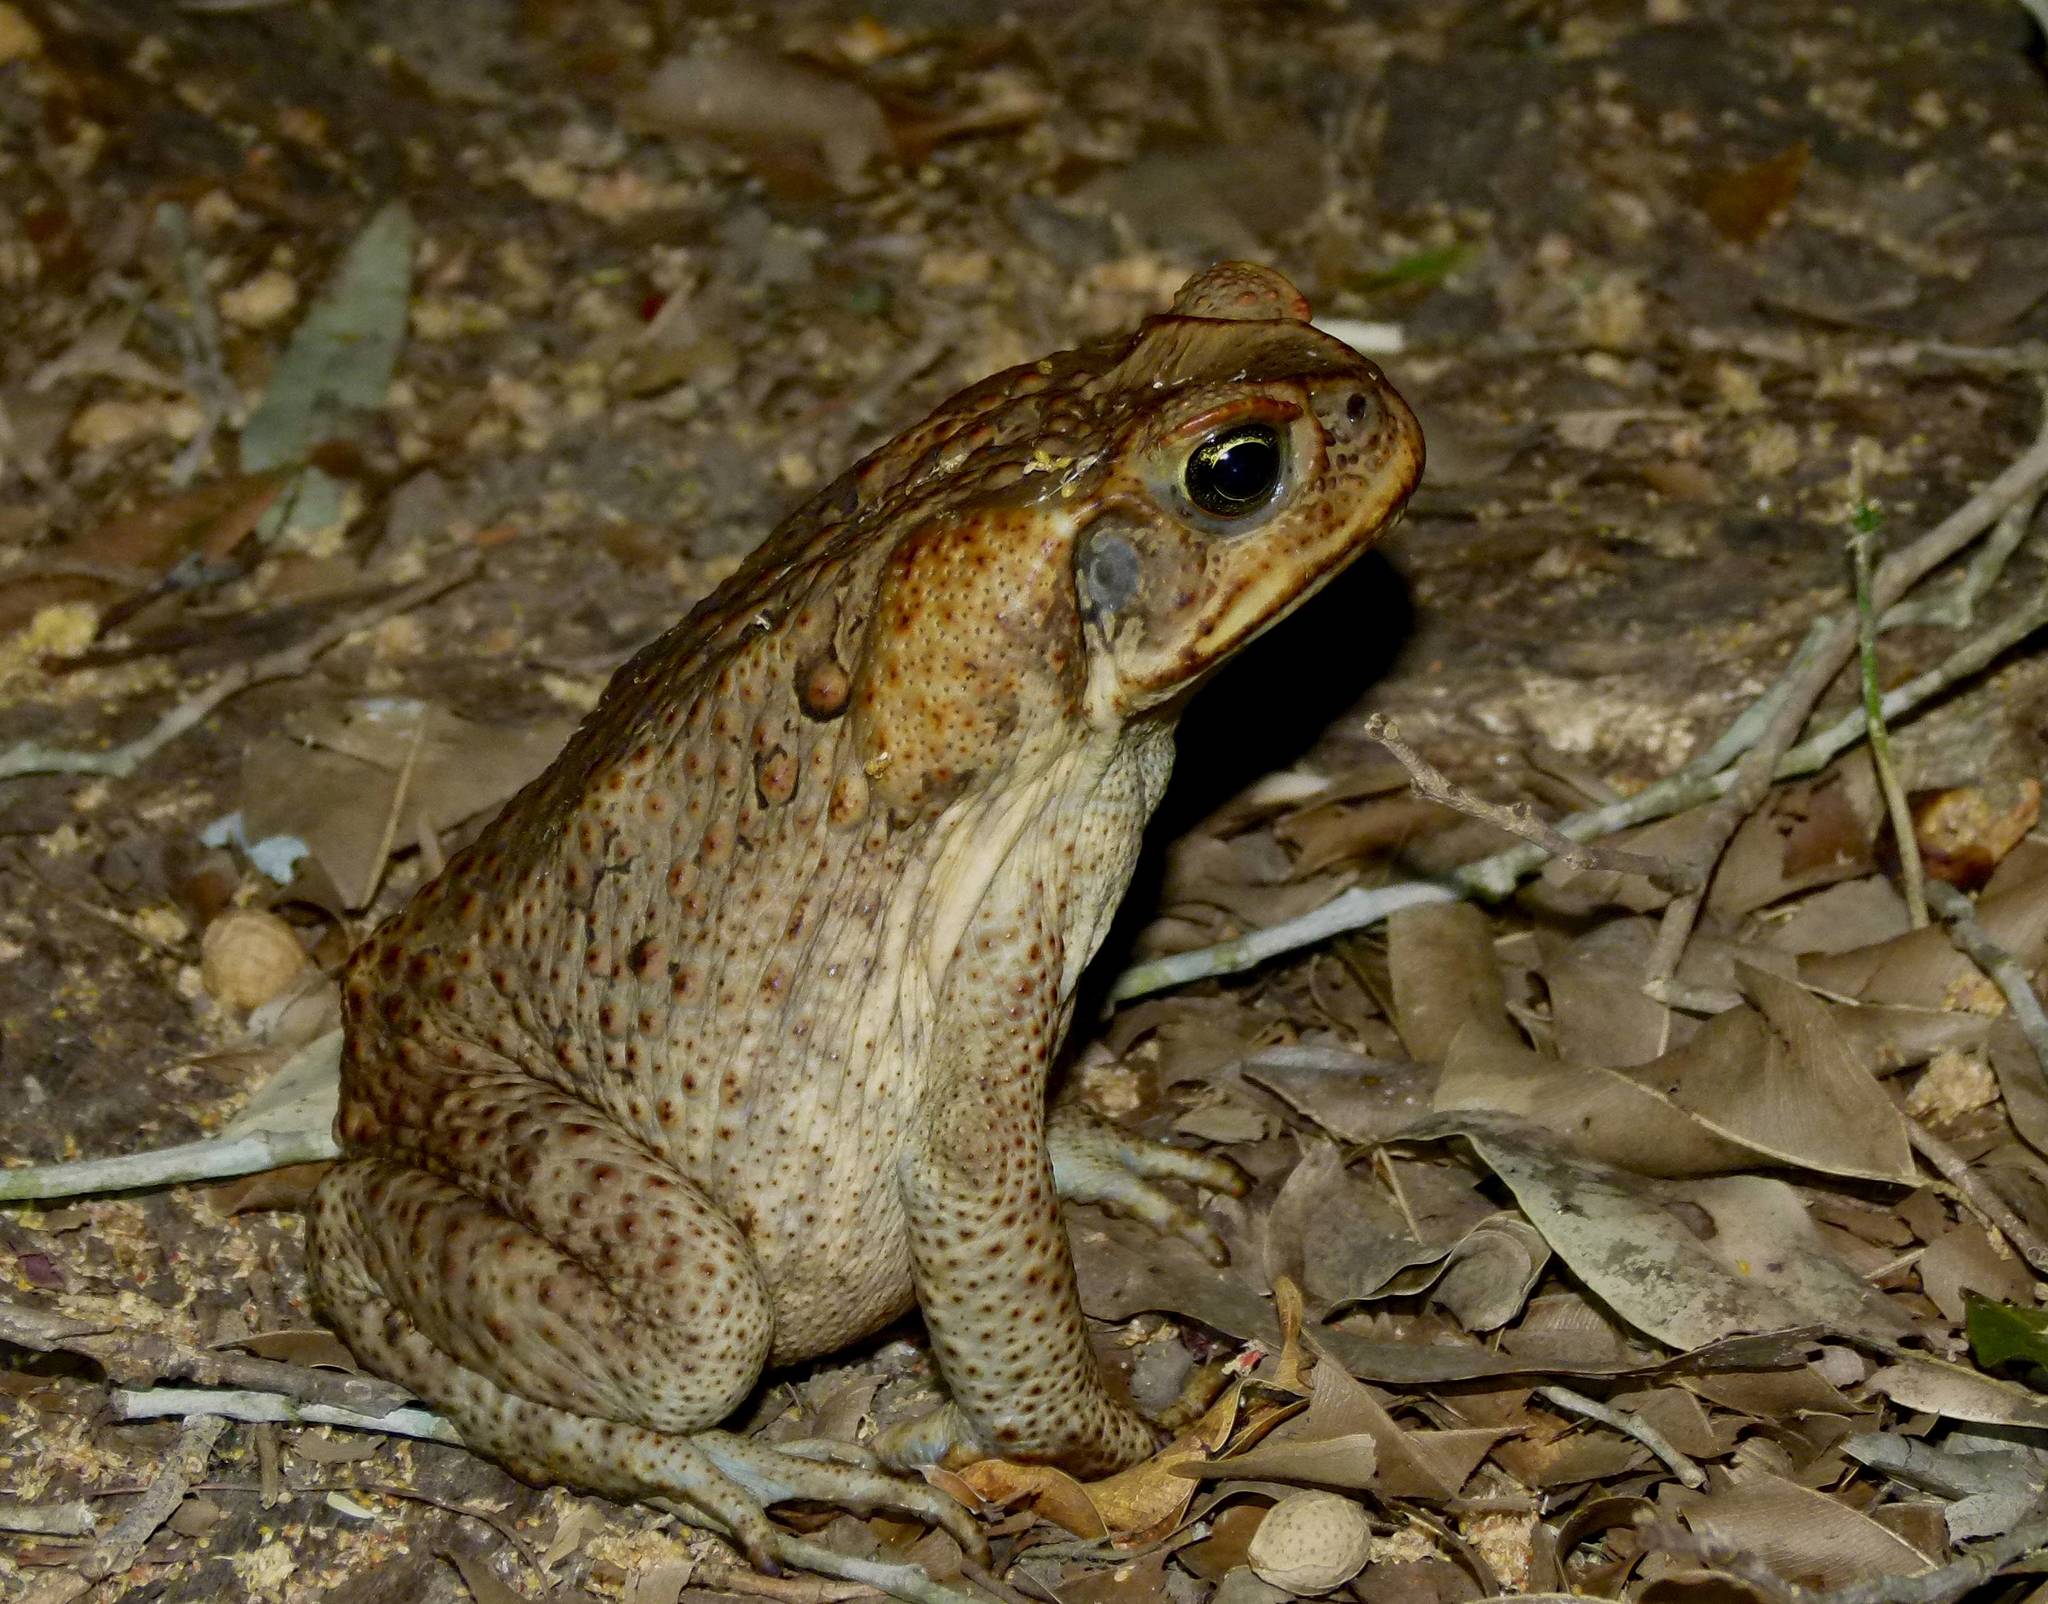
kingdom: Animalia
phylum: Chordata
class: Amphibia
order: Anura
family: Bufonidae
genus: Rhinella
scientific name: Rhinella marina
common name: Cane toad
